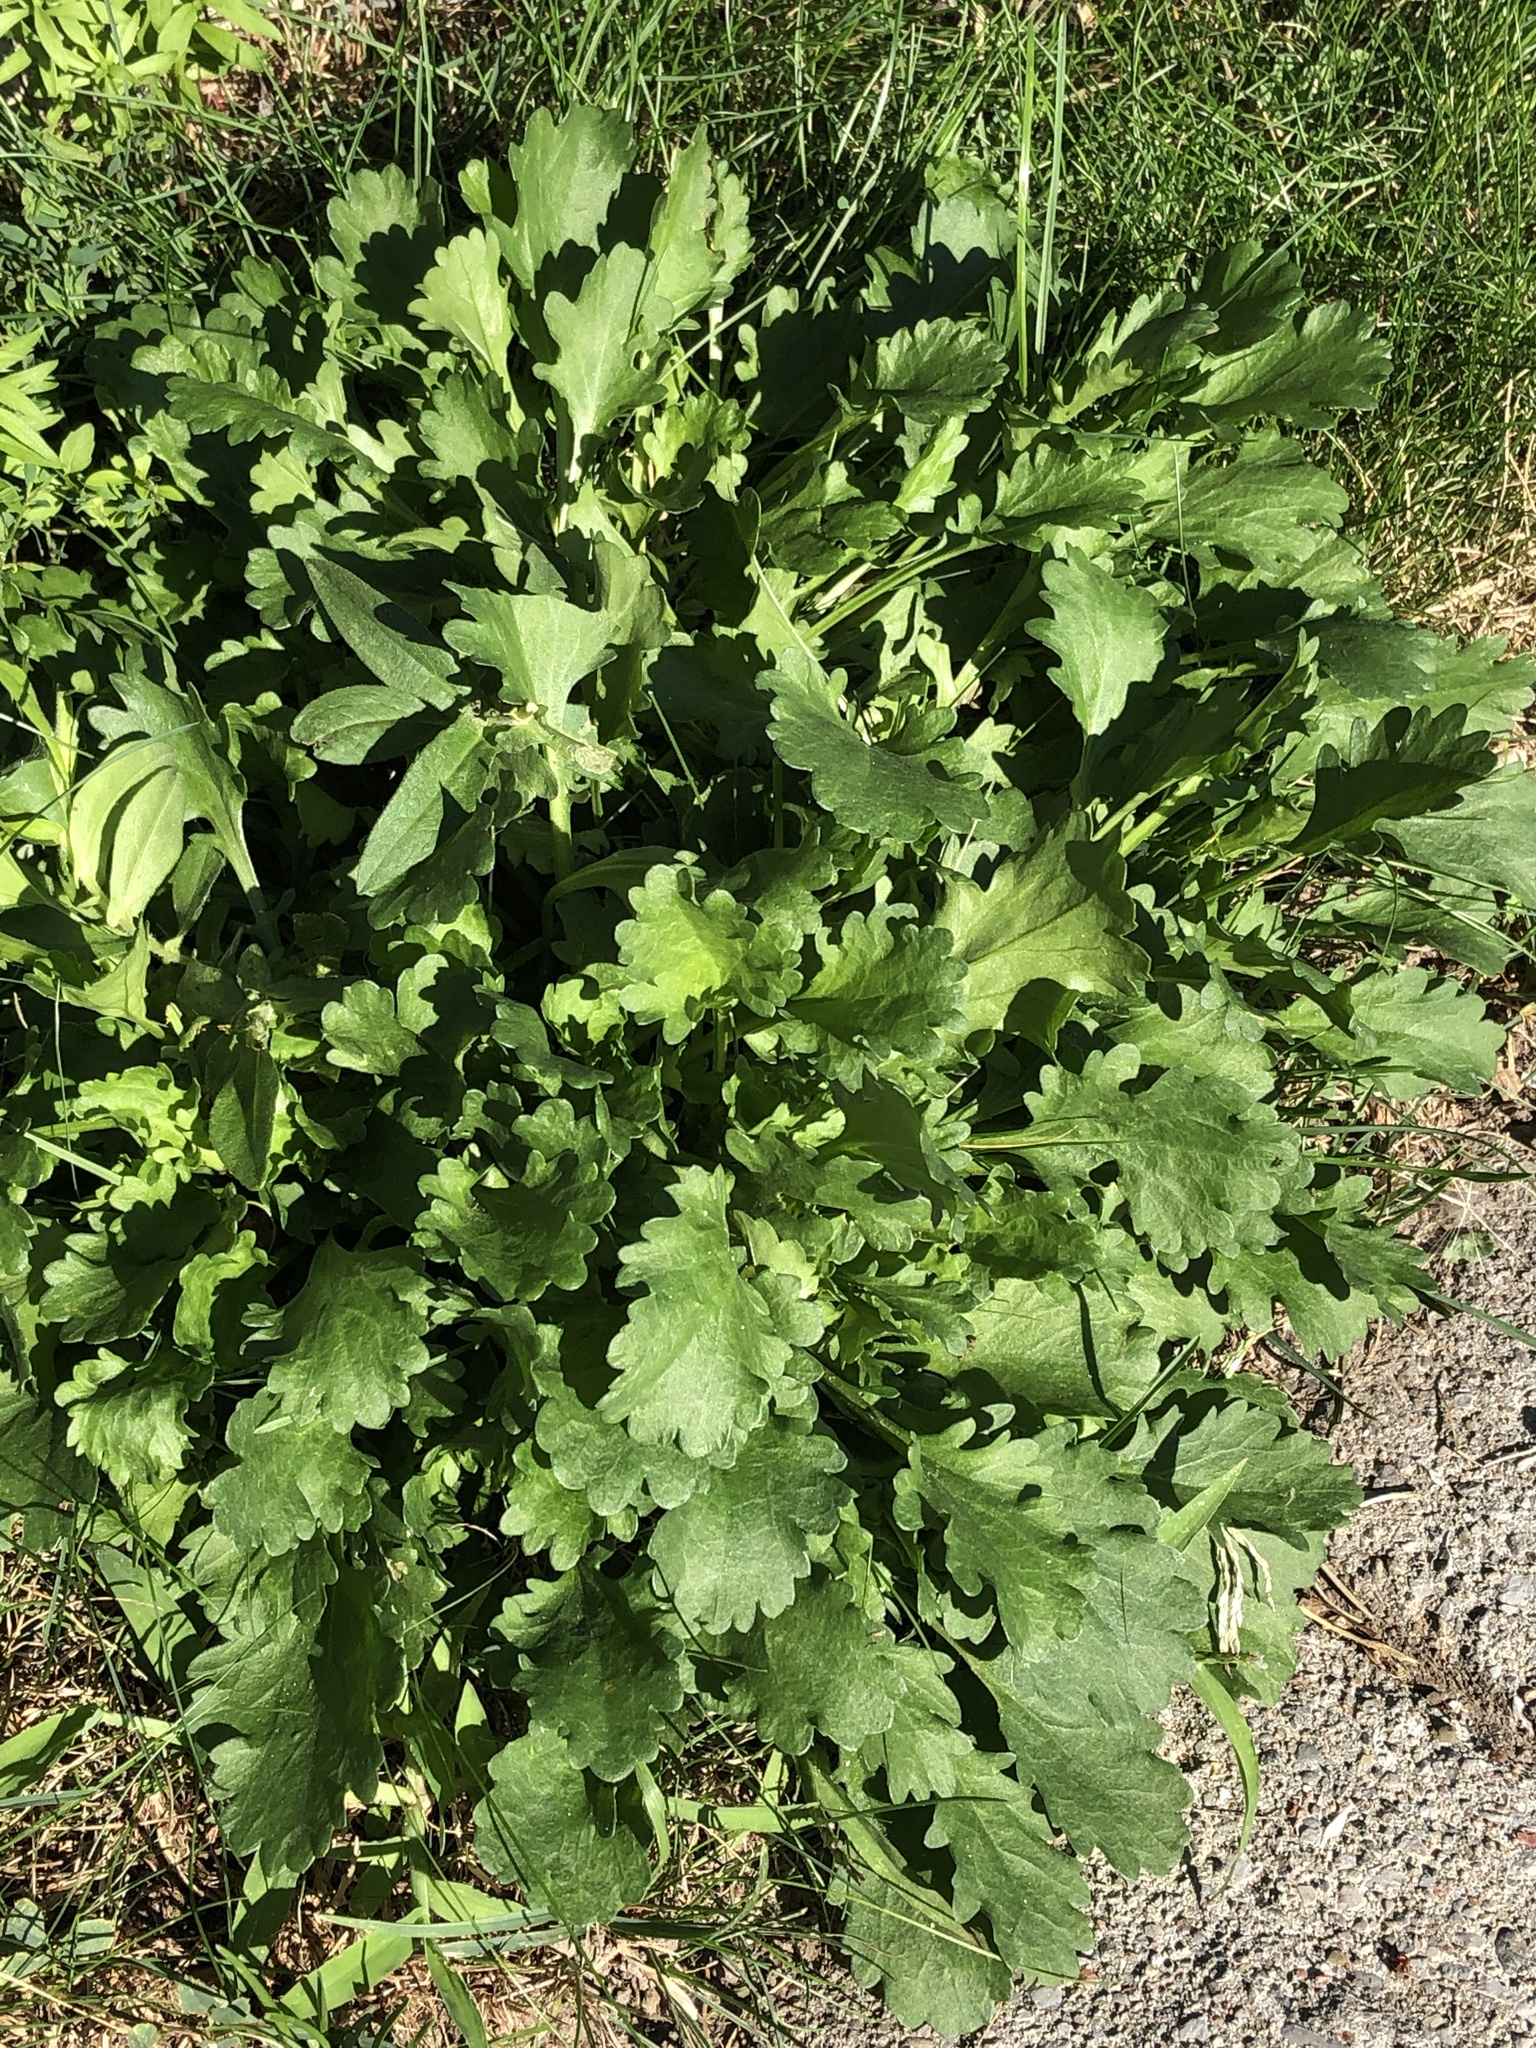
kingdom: Plantae
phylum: Tracheophyta
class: Magnoliopsida
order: Asterales
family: Asteraceae
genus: Leucanthemum
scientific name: Leucanthemum vulgare
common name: Oxeye daisy
